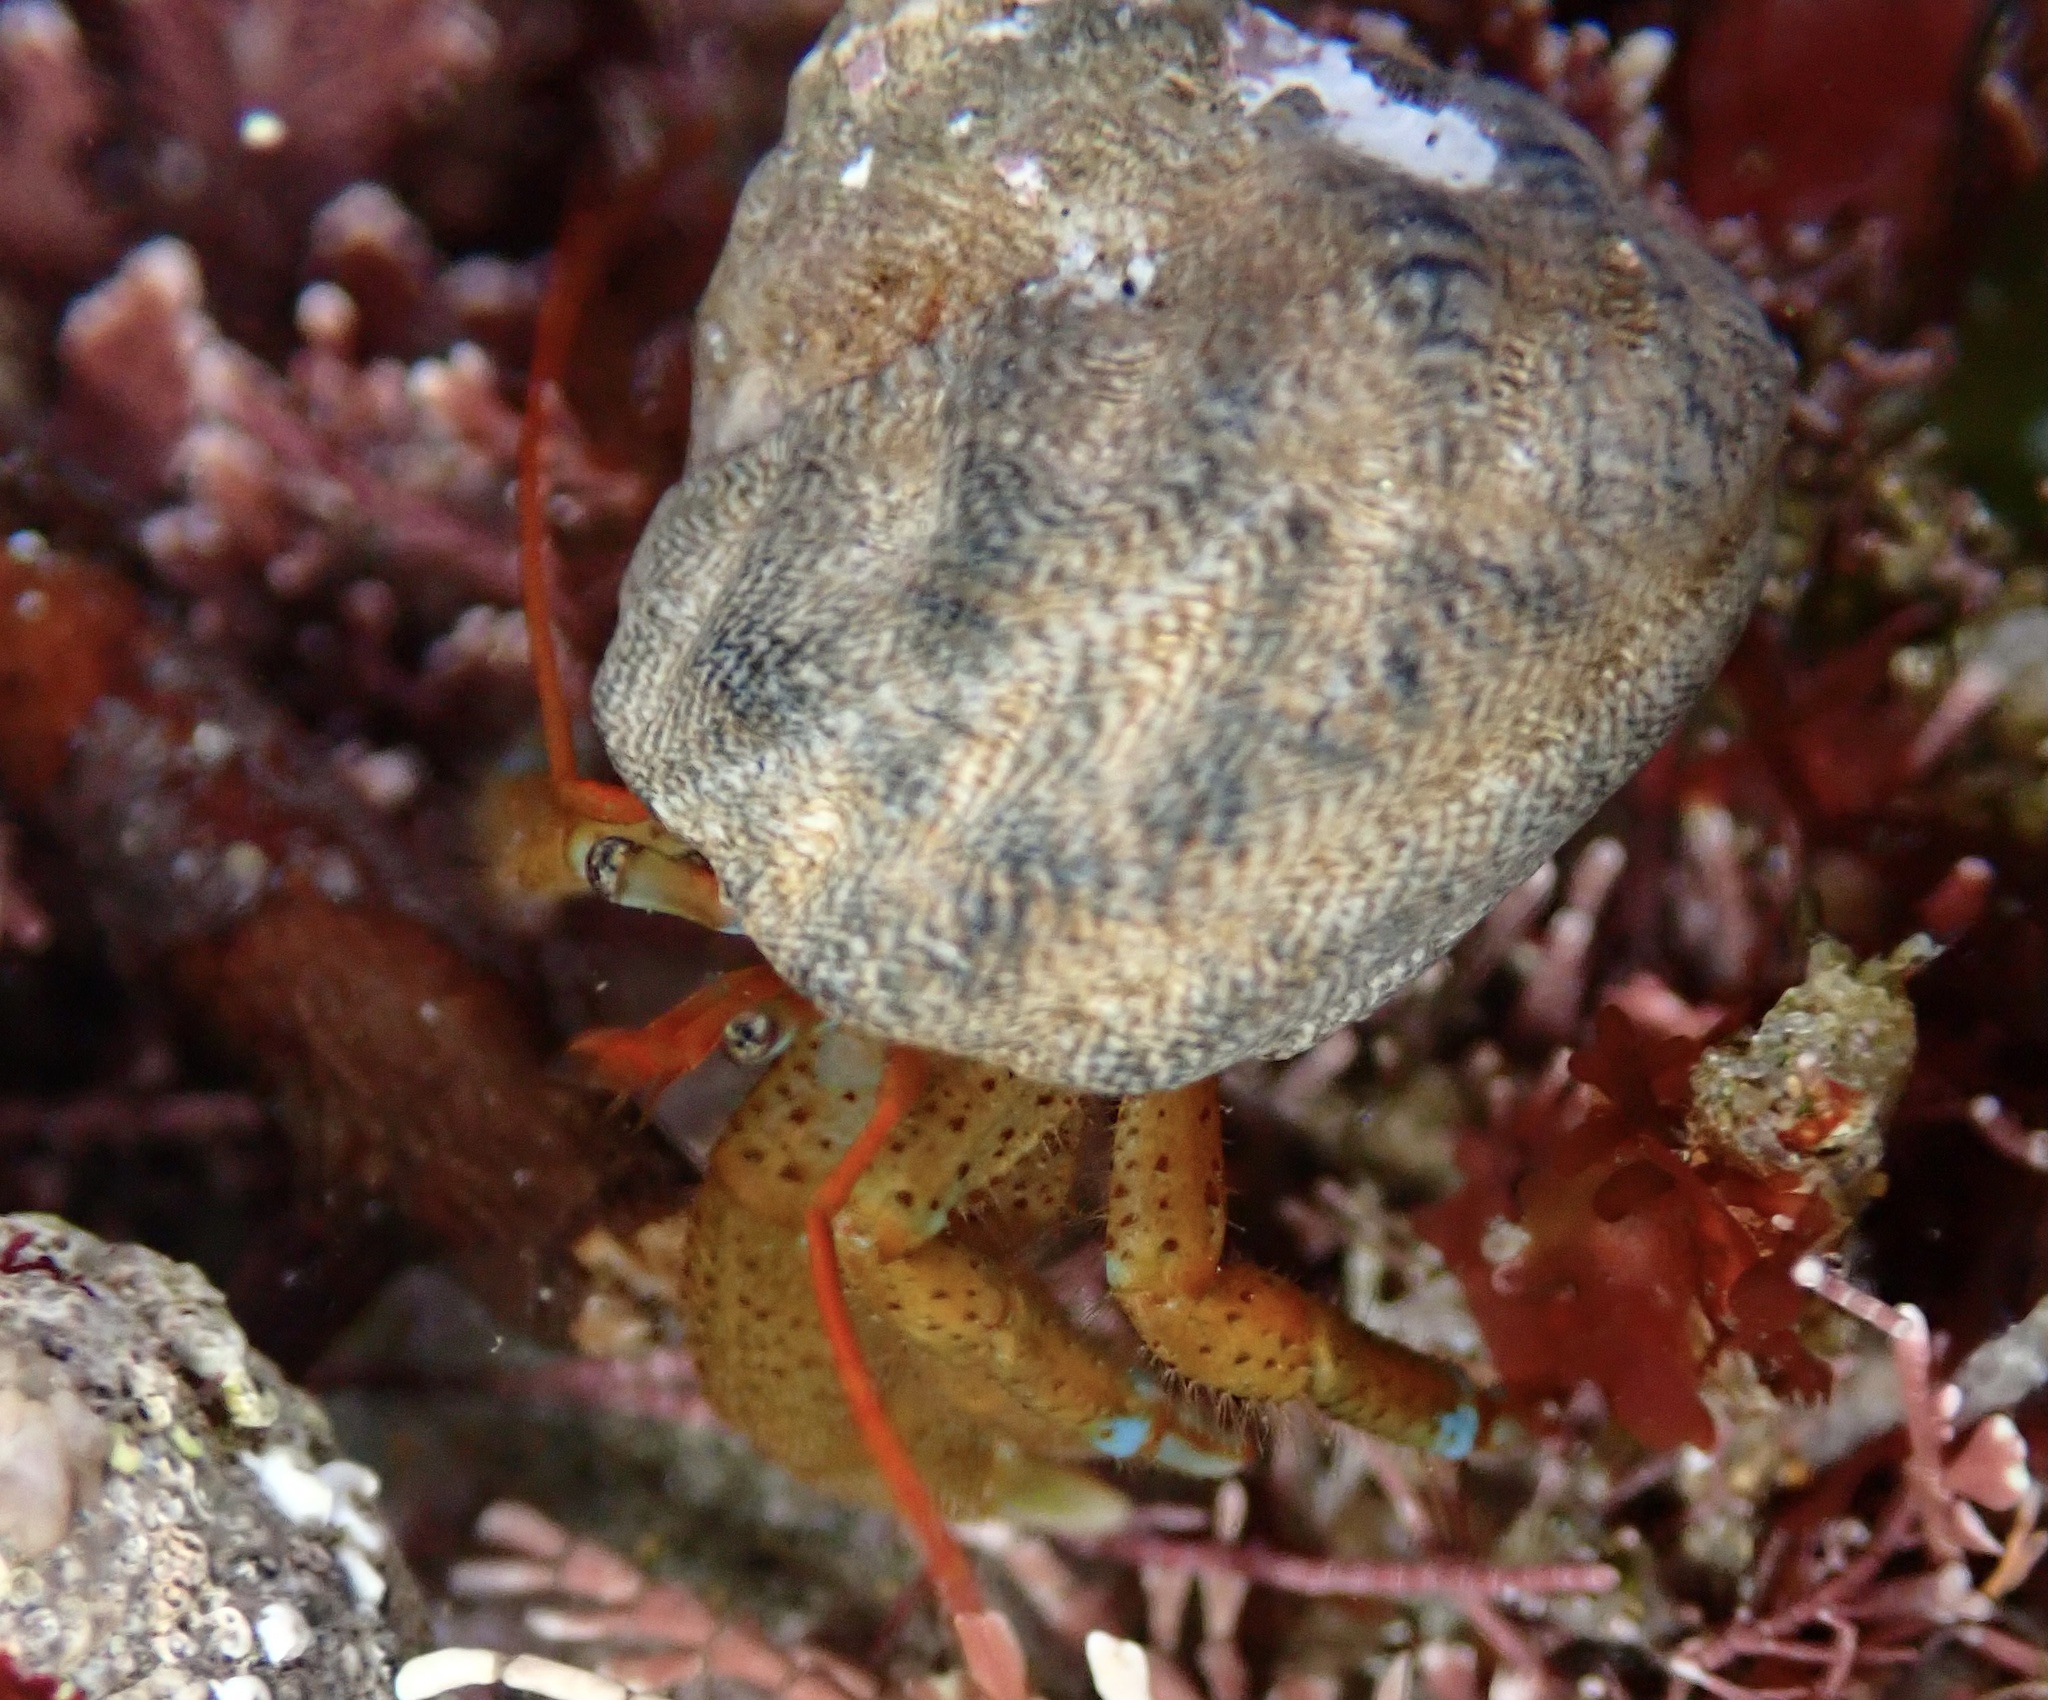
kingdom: Animalia
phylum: Arthropoda
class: Malacostraca
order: Decapoda
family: Paguridae
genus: Pagurus
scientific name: Pagurus samuelis
